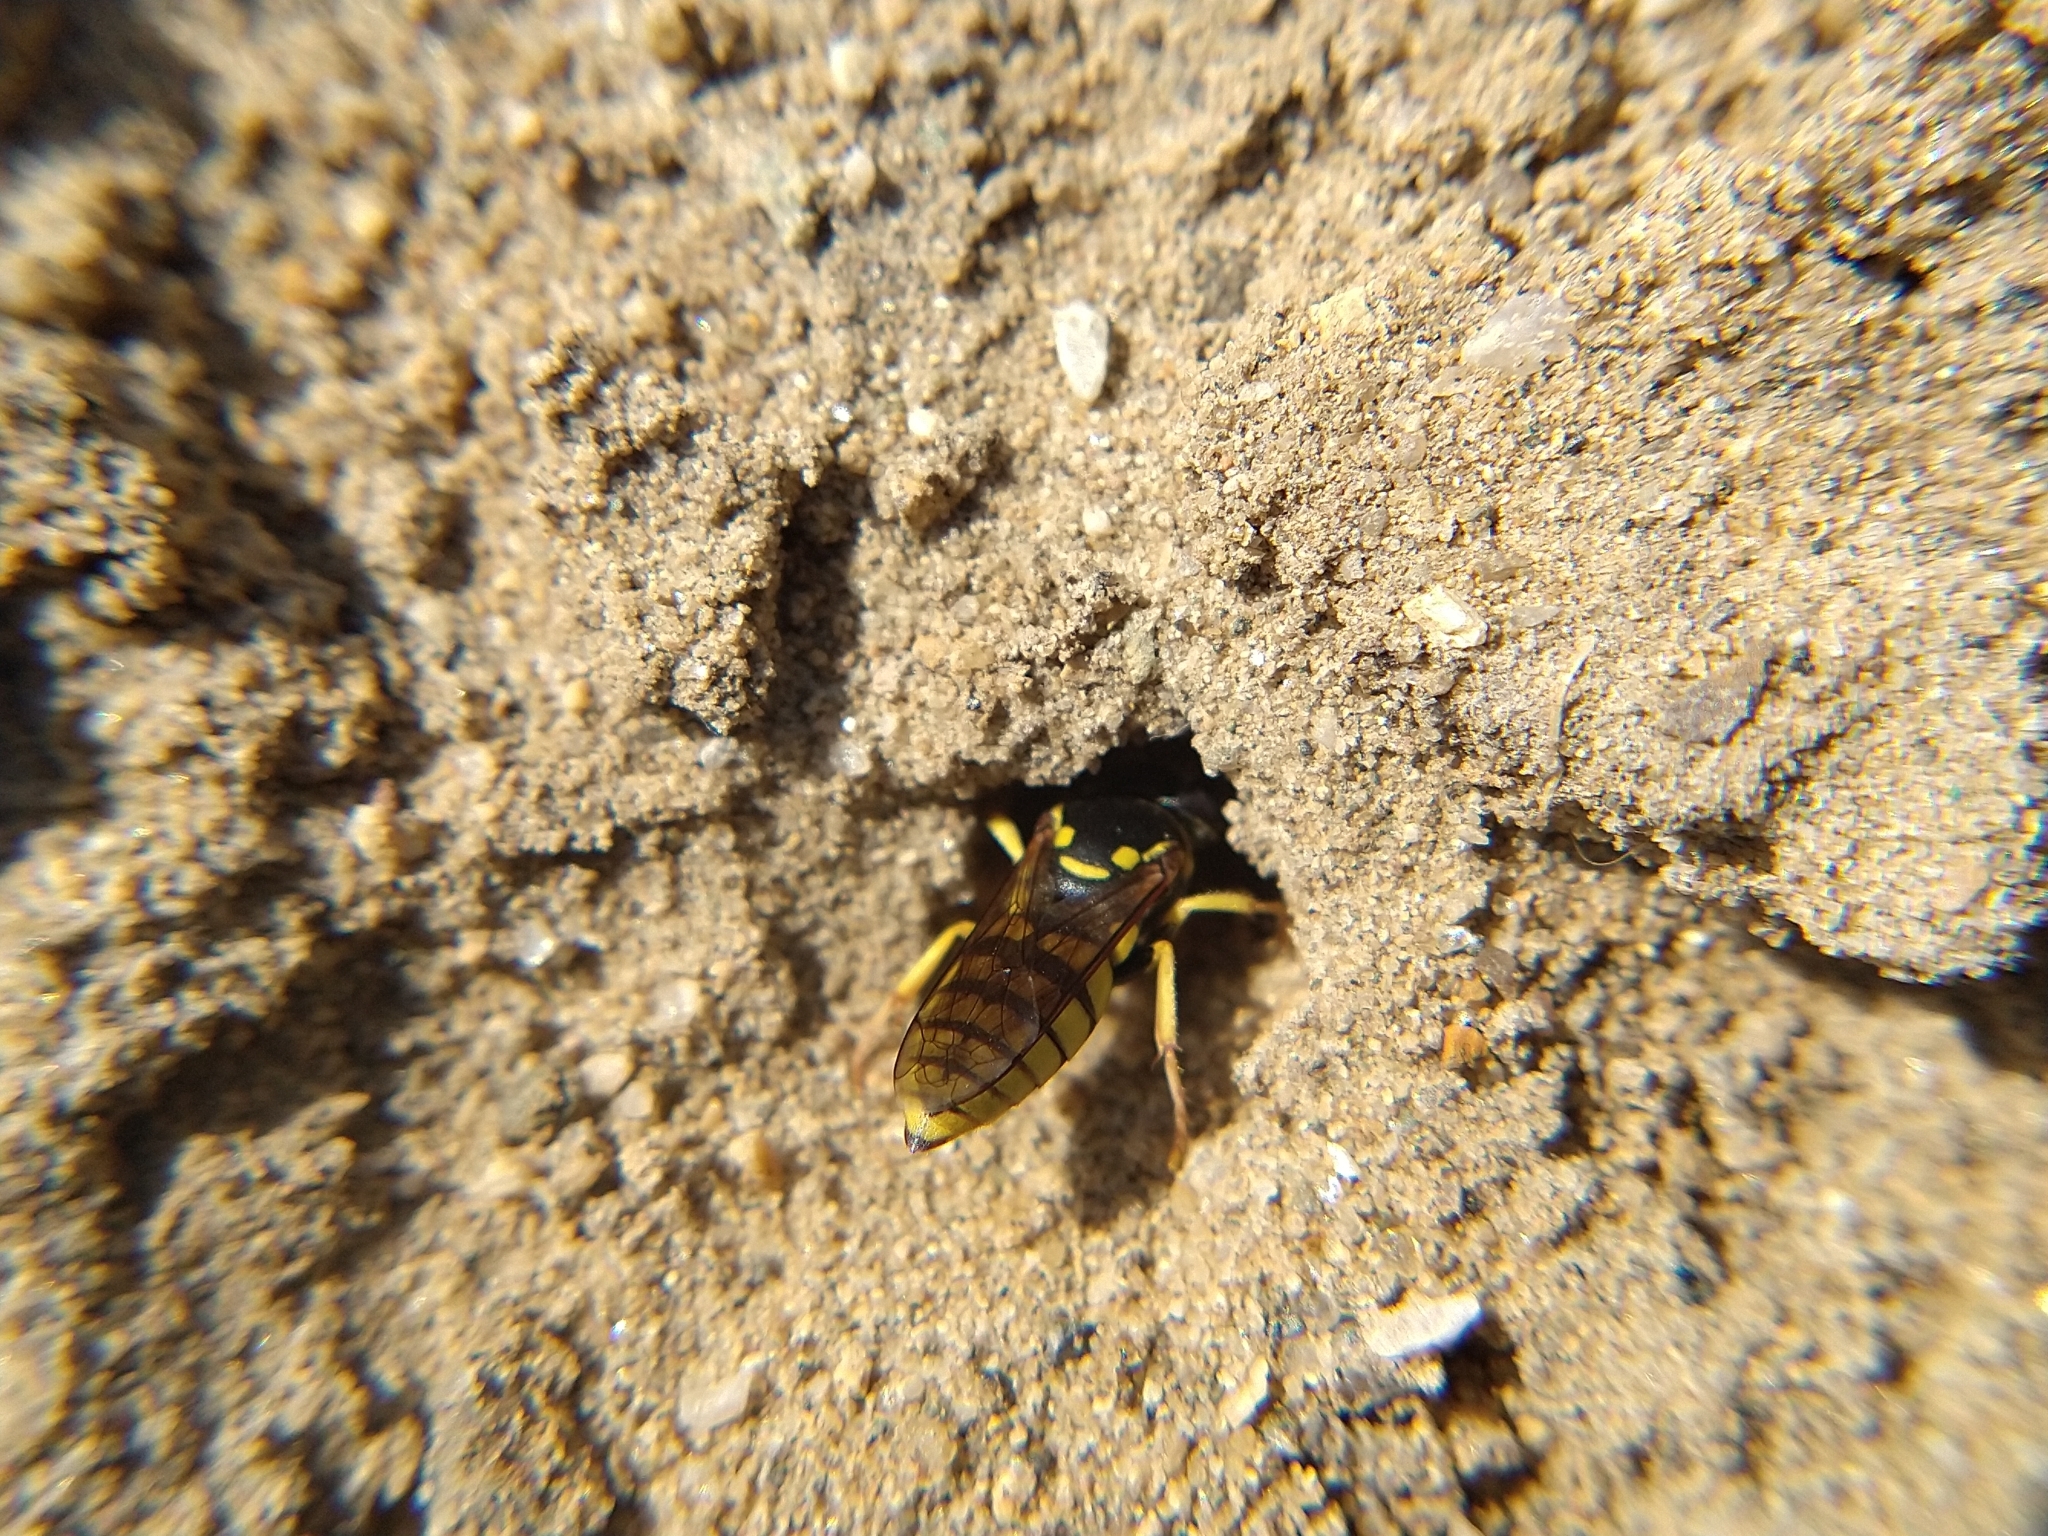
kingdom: Animalia
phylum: Arthropoda
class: Insecta
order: Hymenoptera
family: Crabronidae
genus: Bicyrtes
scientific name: Bicyrtes capnopterus
